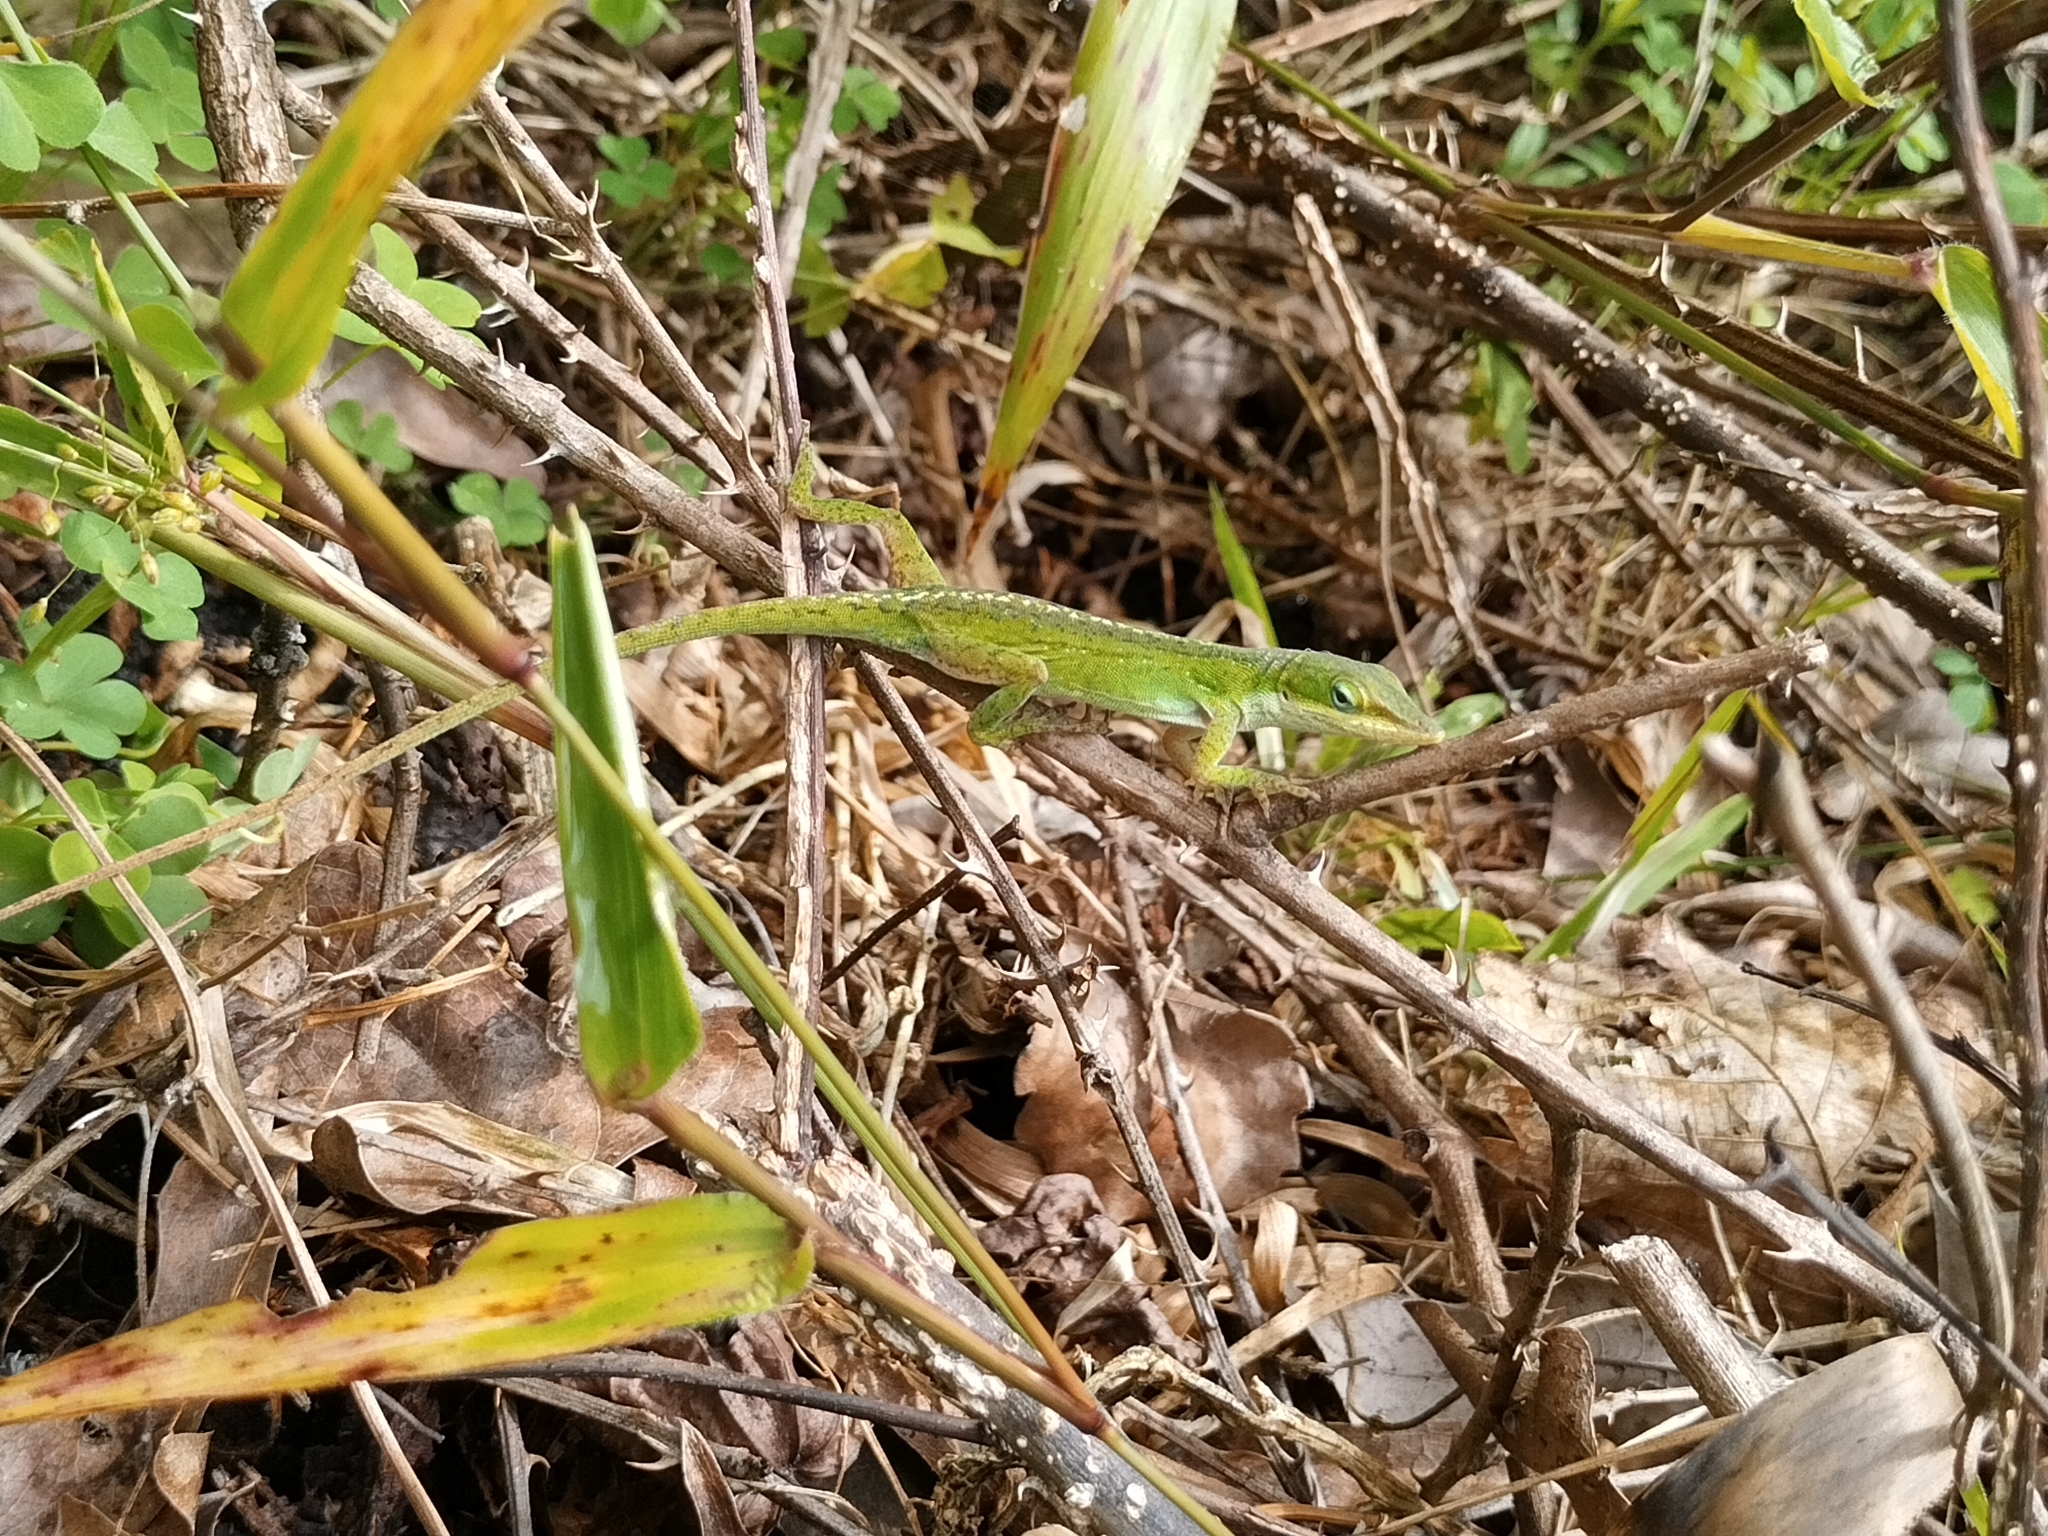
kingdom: Animalia
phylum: Chordata
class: Squamata
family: Dactyloidae
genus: Anolis
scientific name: Anolis carolinensis
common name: Green anole
